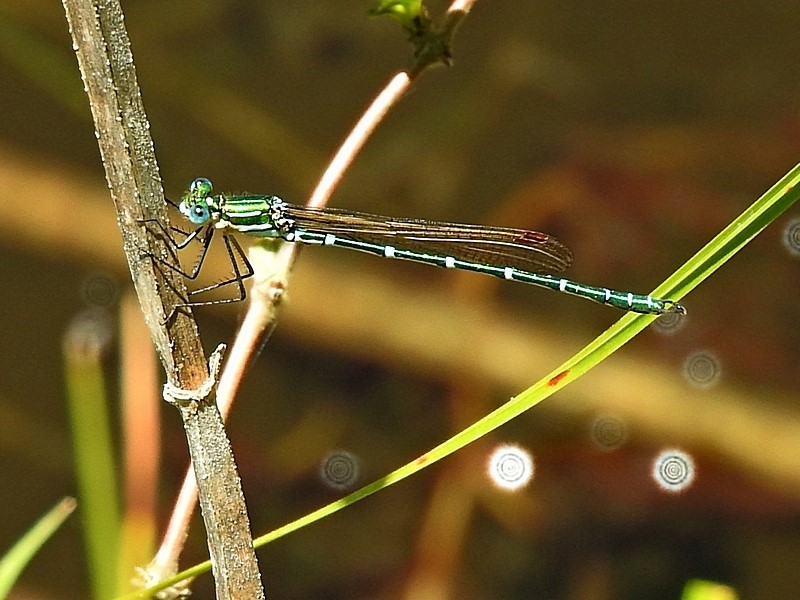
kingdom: Animalia
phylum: Arthropoda
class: Insecta
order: Odonata
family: Lestidae
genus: Austrolestes
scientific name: Austrolestes cingulatus
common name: Metallic ringtail
